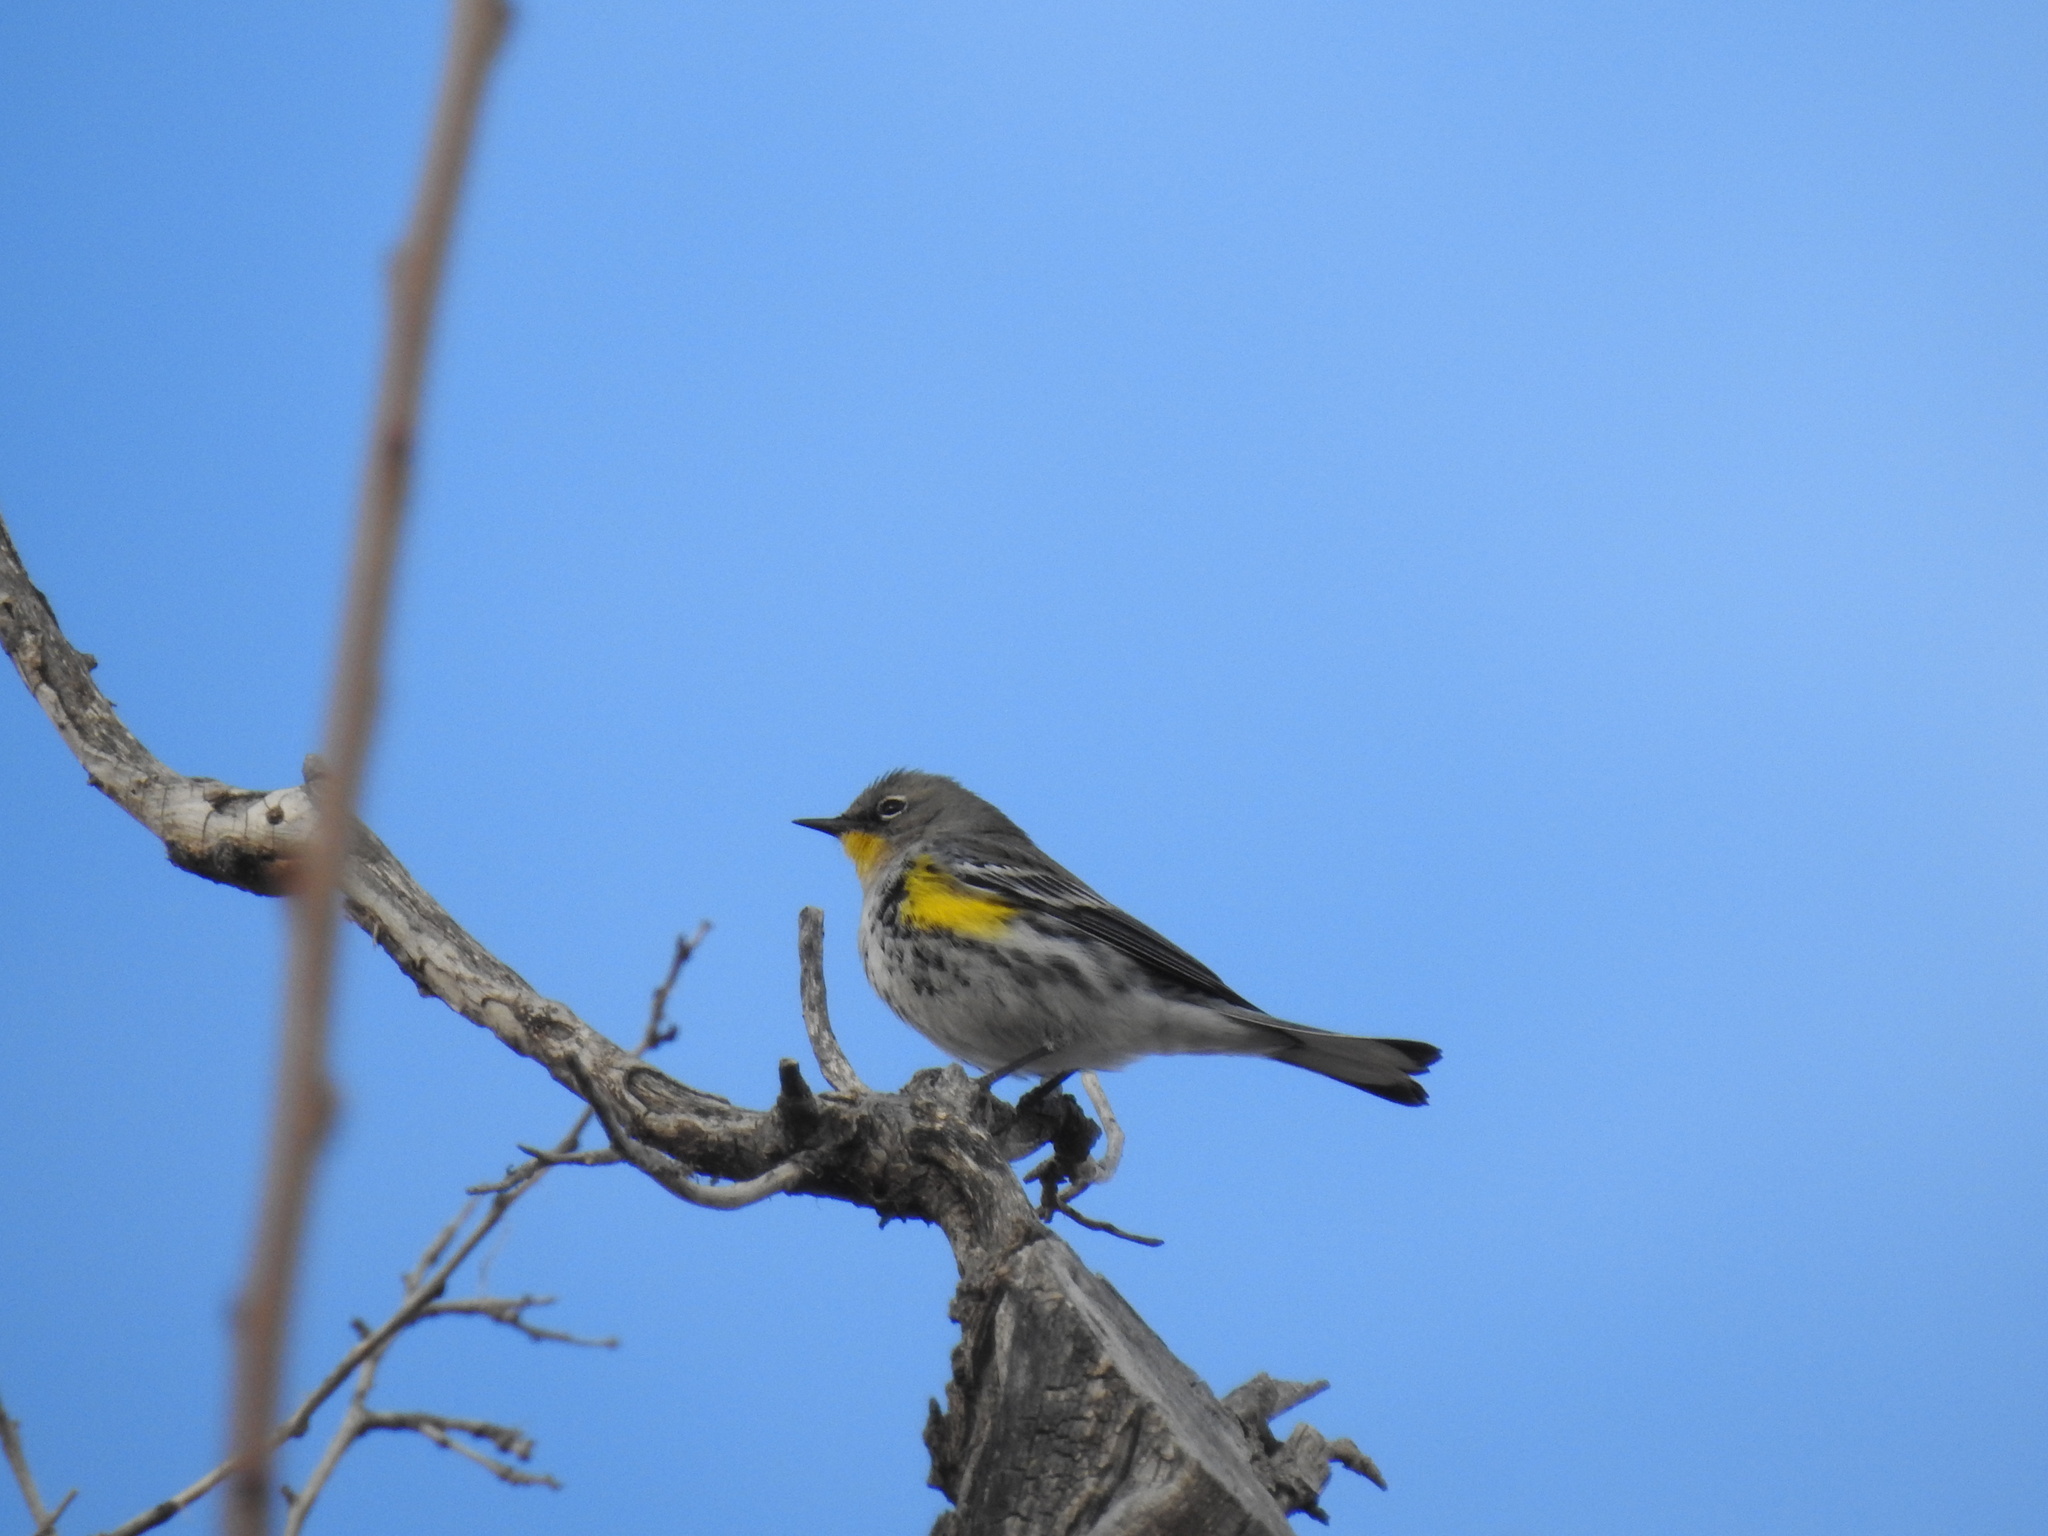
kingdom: Animalia
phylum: Chordata
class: Aves
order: Passeriformes
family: Parulidae
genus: Setophaga
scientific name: Setophaga coronata
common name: Myrtle warbler
